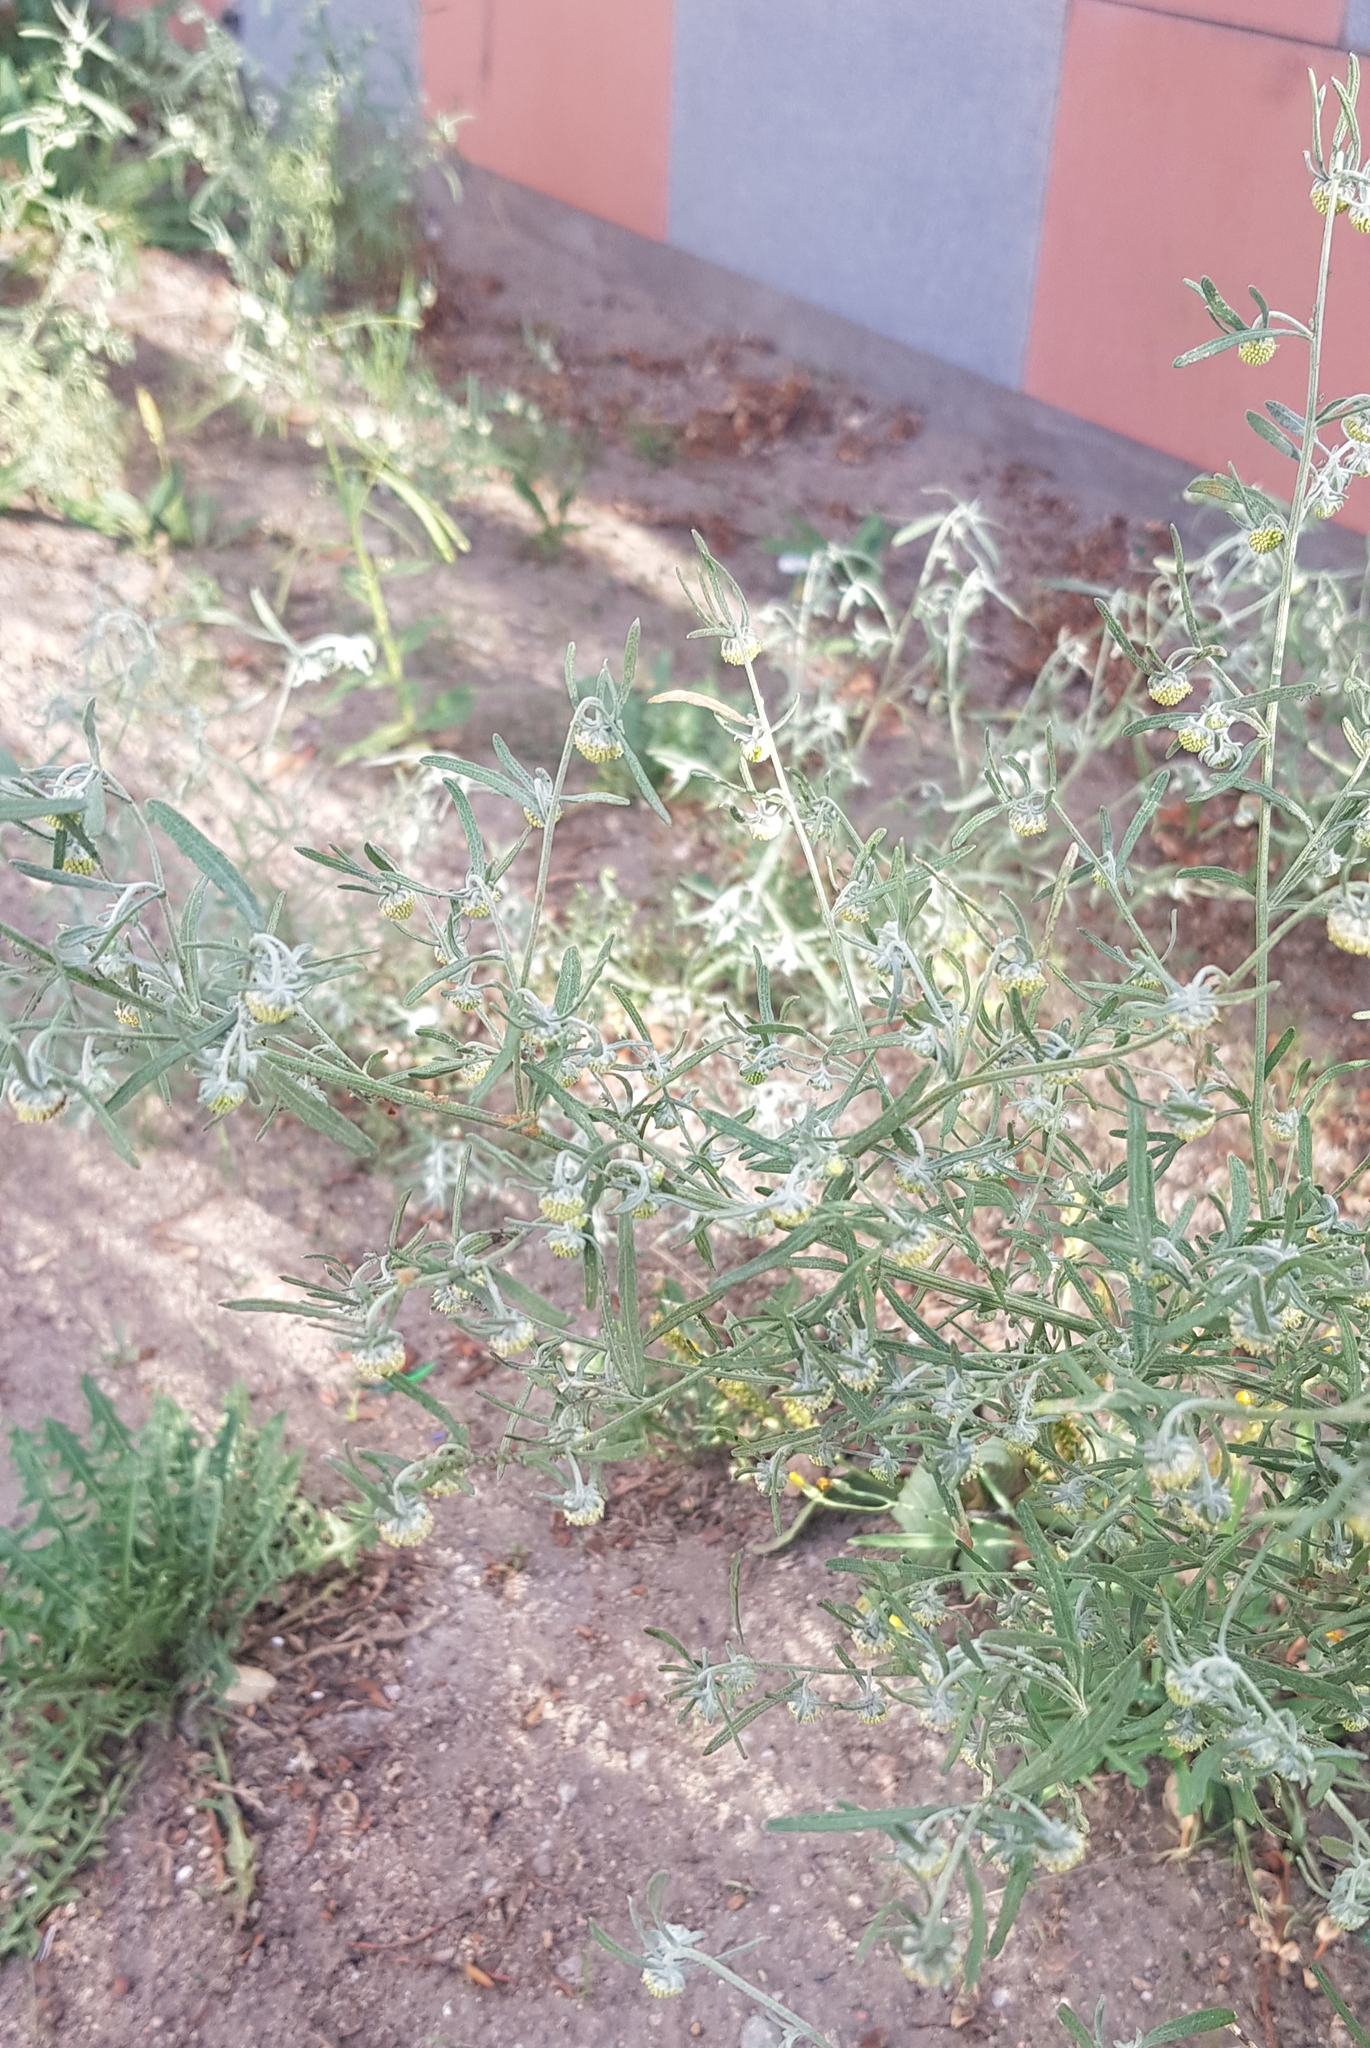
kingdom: Plantae
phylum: Tracheophyta
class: Magnoliopsida
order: Asterales
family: Asteraceae
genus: Artemisia
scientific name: Artemisia sieversiana
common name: Sieversian wormwood
